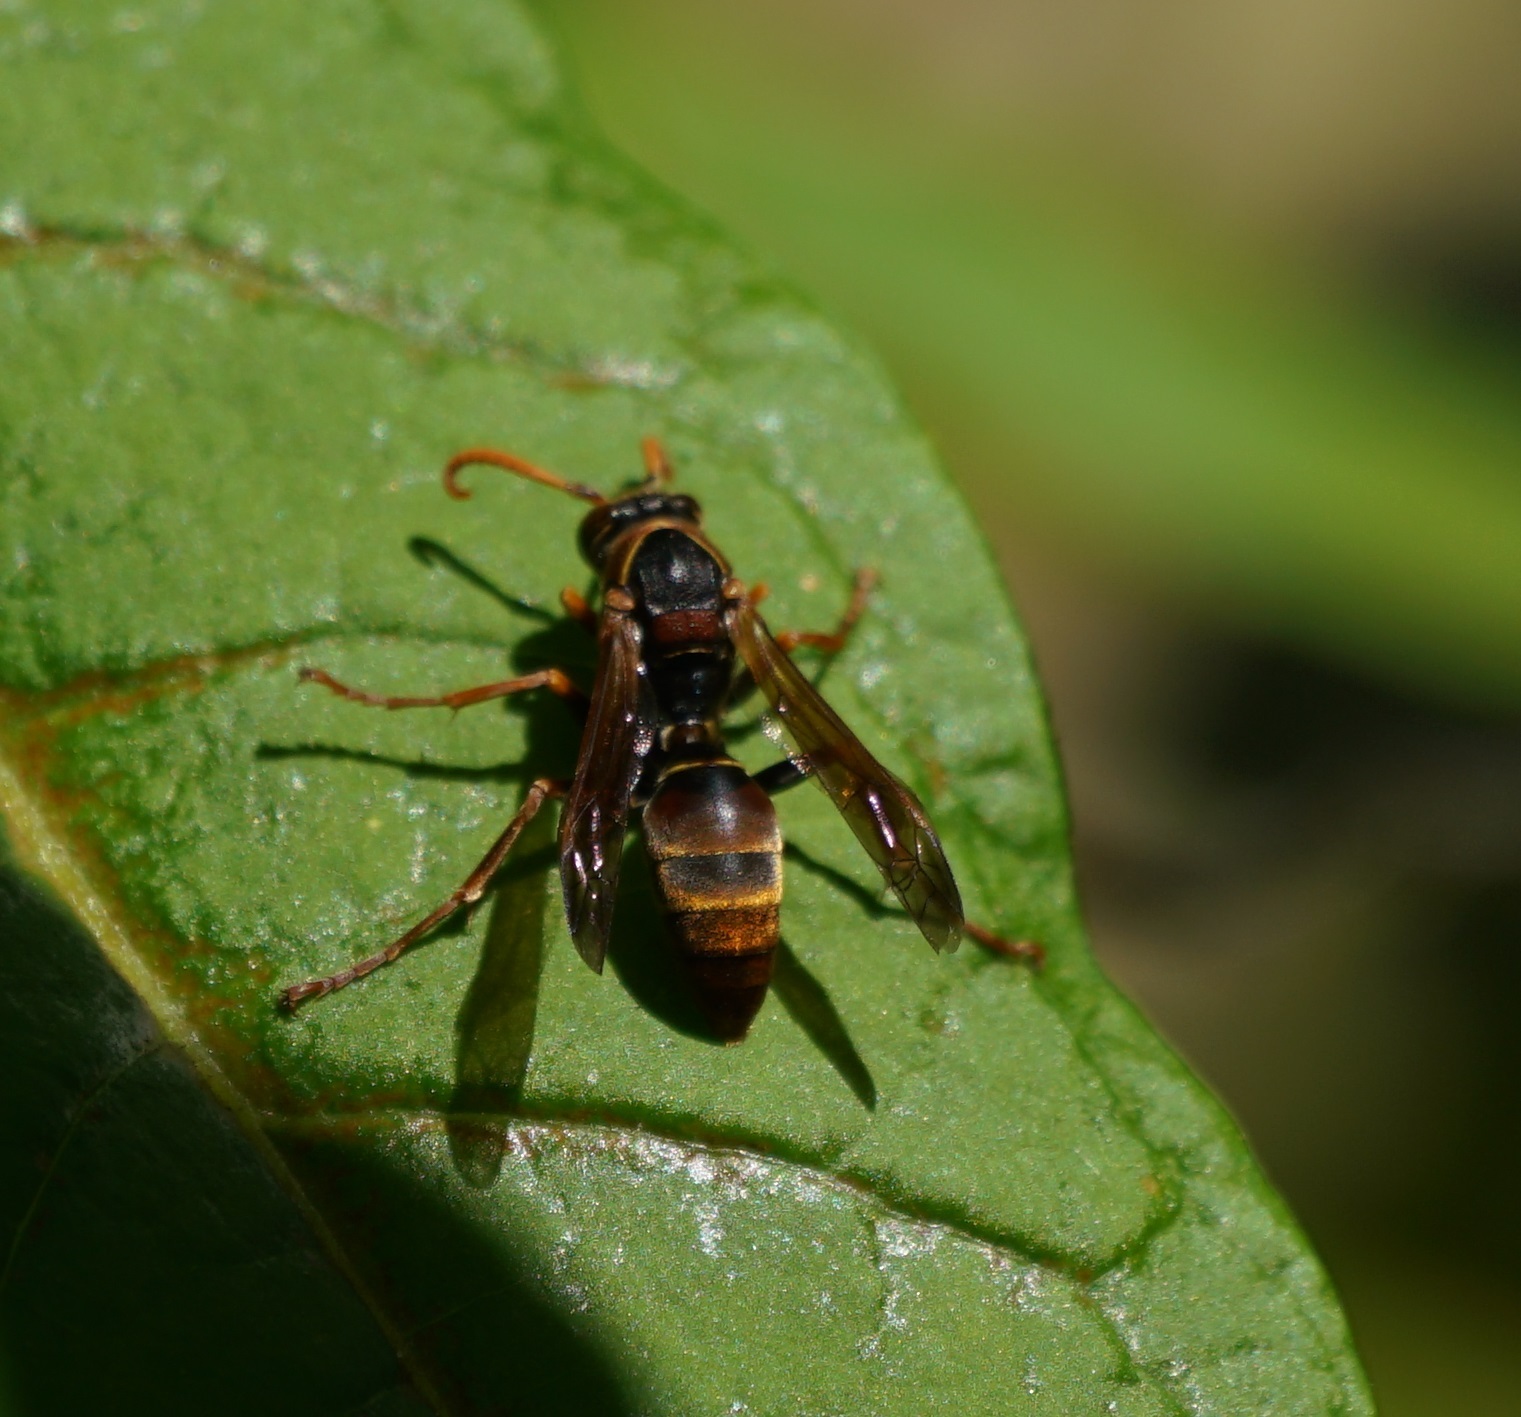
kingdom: Animalia
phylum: Arthropoda
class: Insecta
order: Hymenoptera
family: Eumenidae
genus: Polistes
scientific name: Polistes humilis
